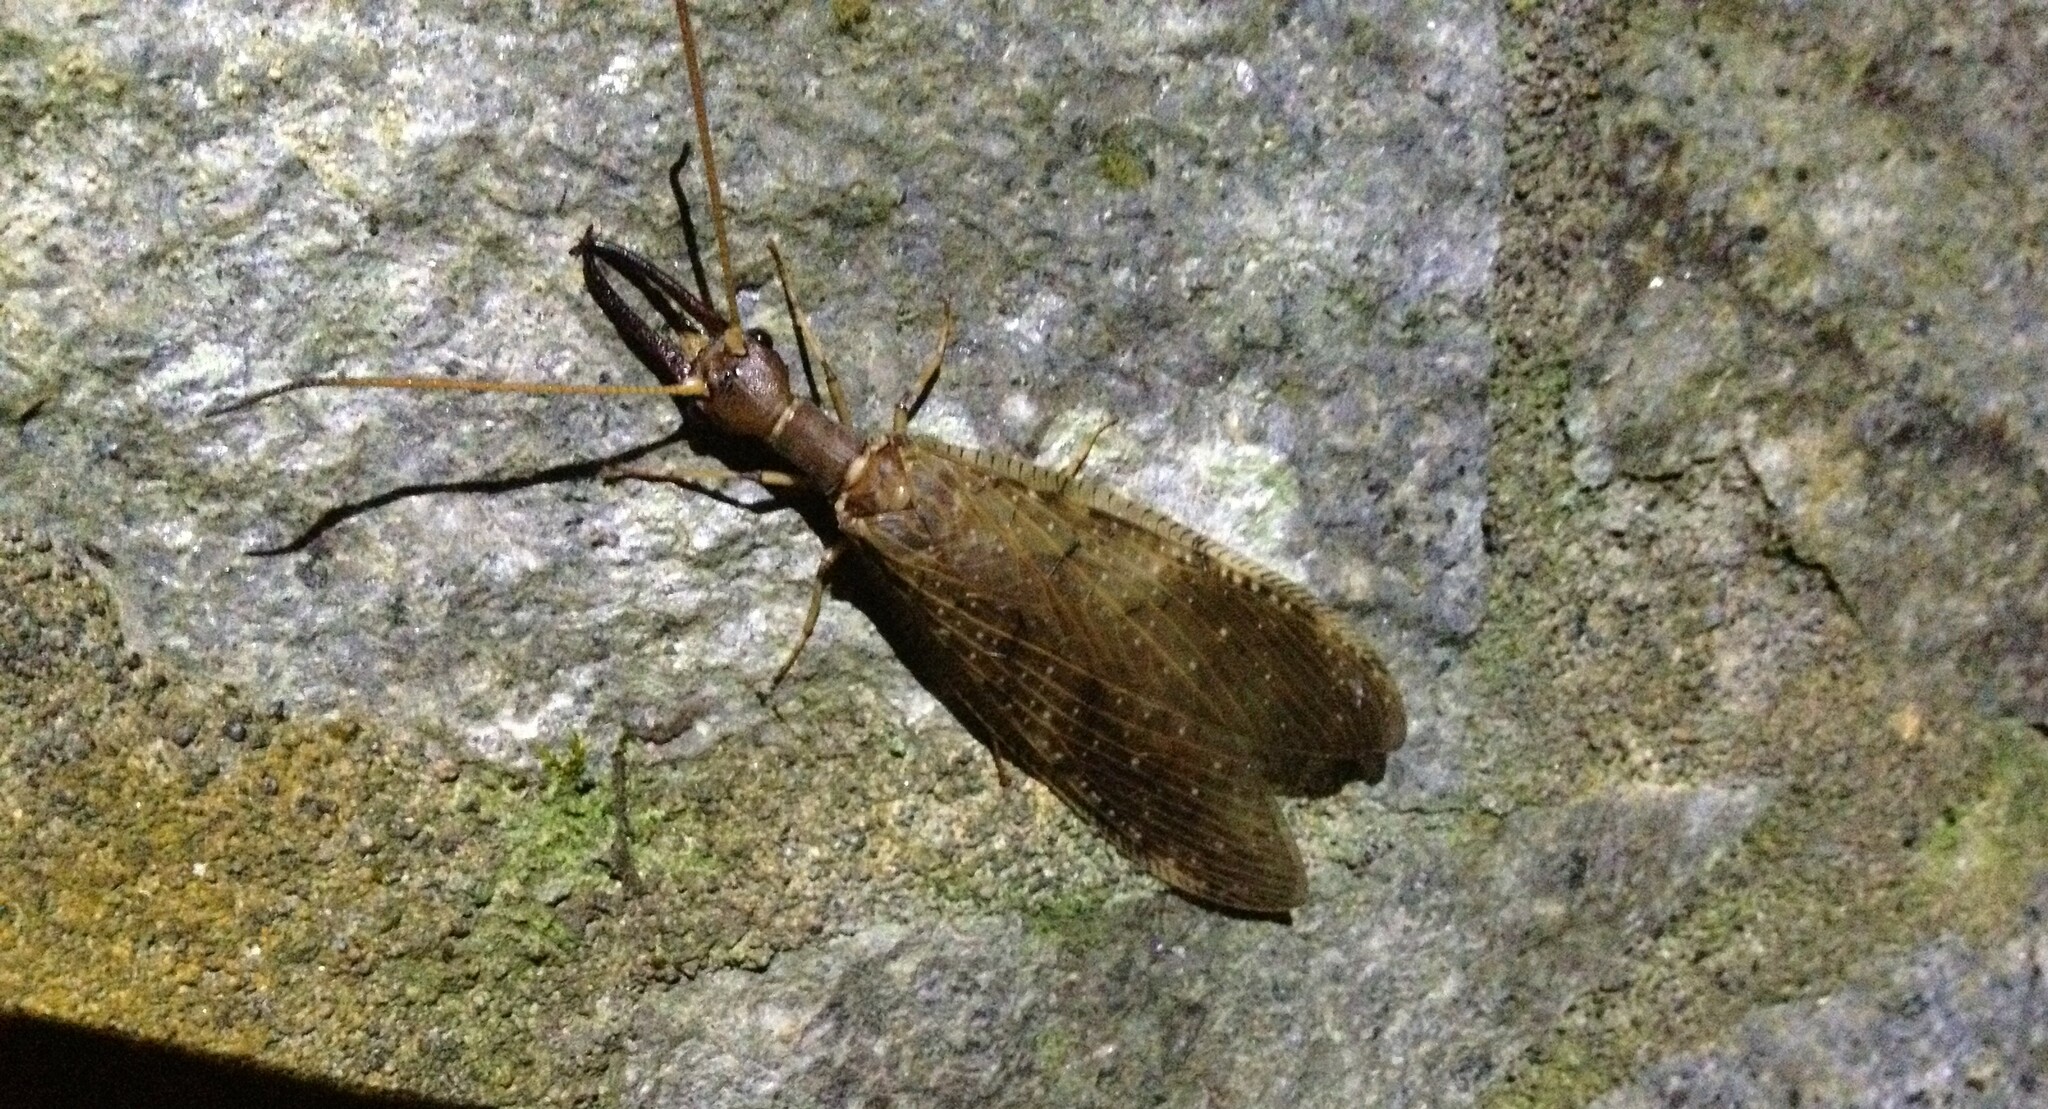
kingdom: Animalia
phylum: Arthropoda
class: Insecta
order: Megaloptera
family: Corydalidae
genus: Corydalus
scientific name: Corydalus peruvianus
